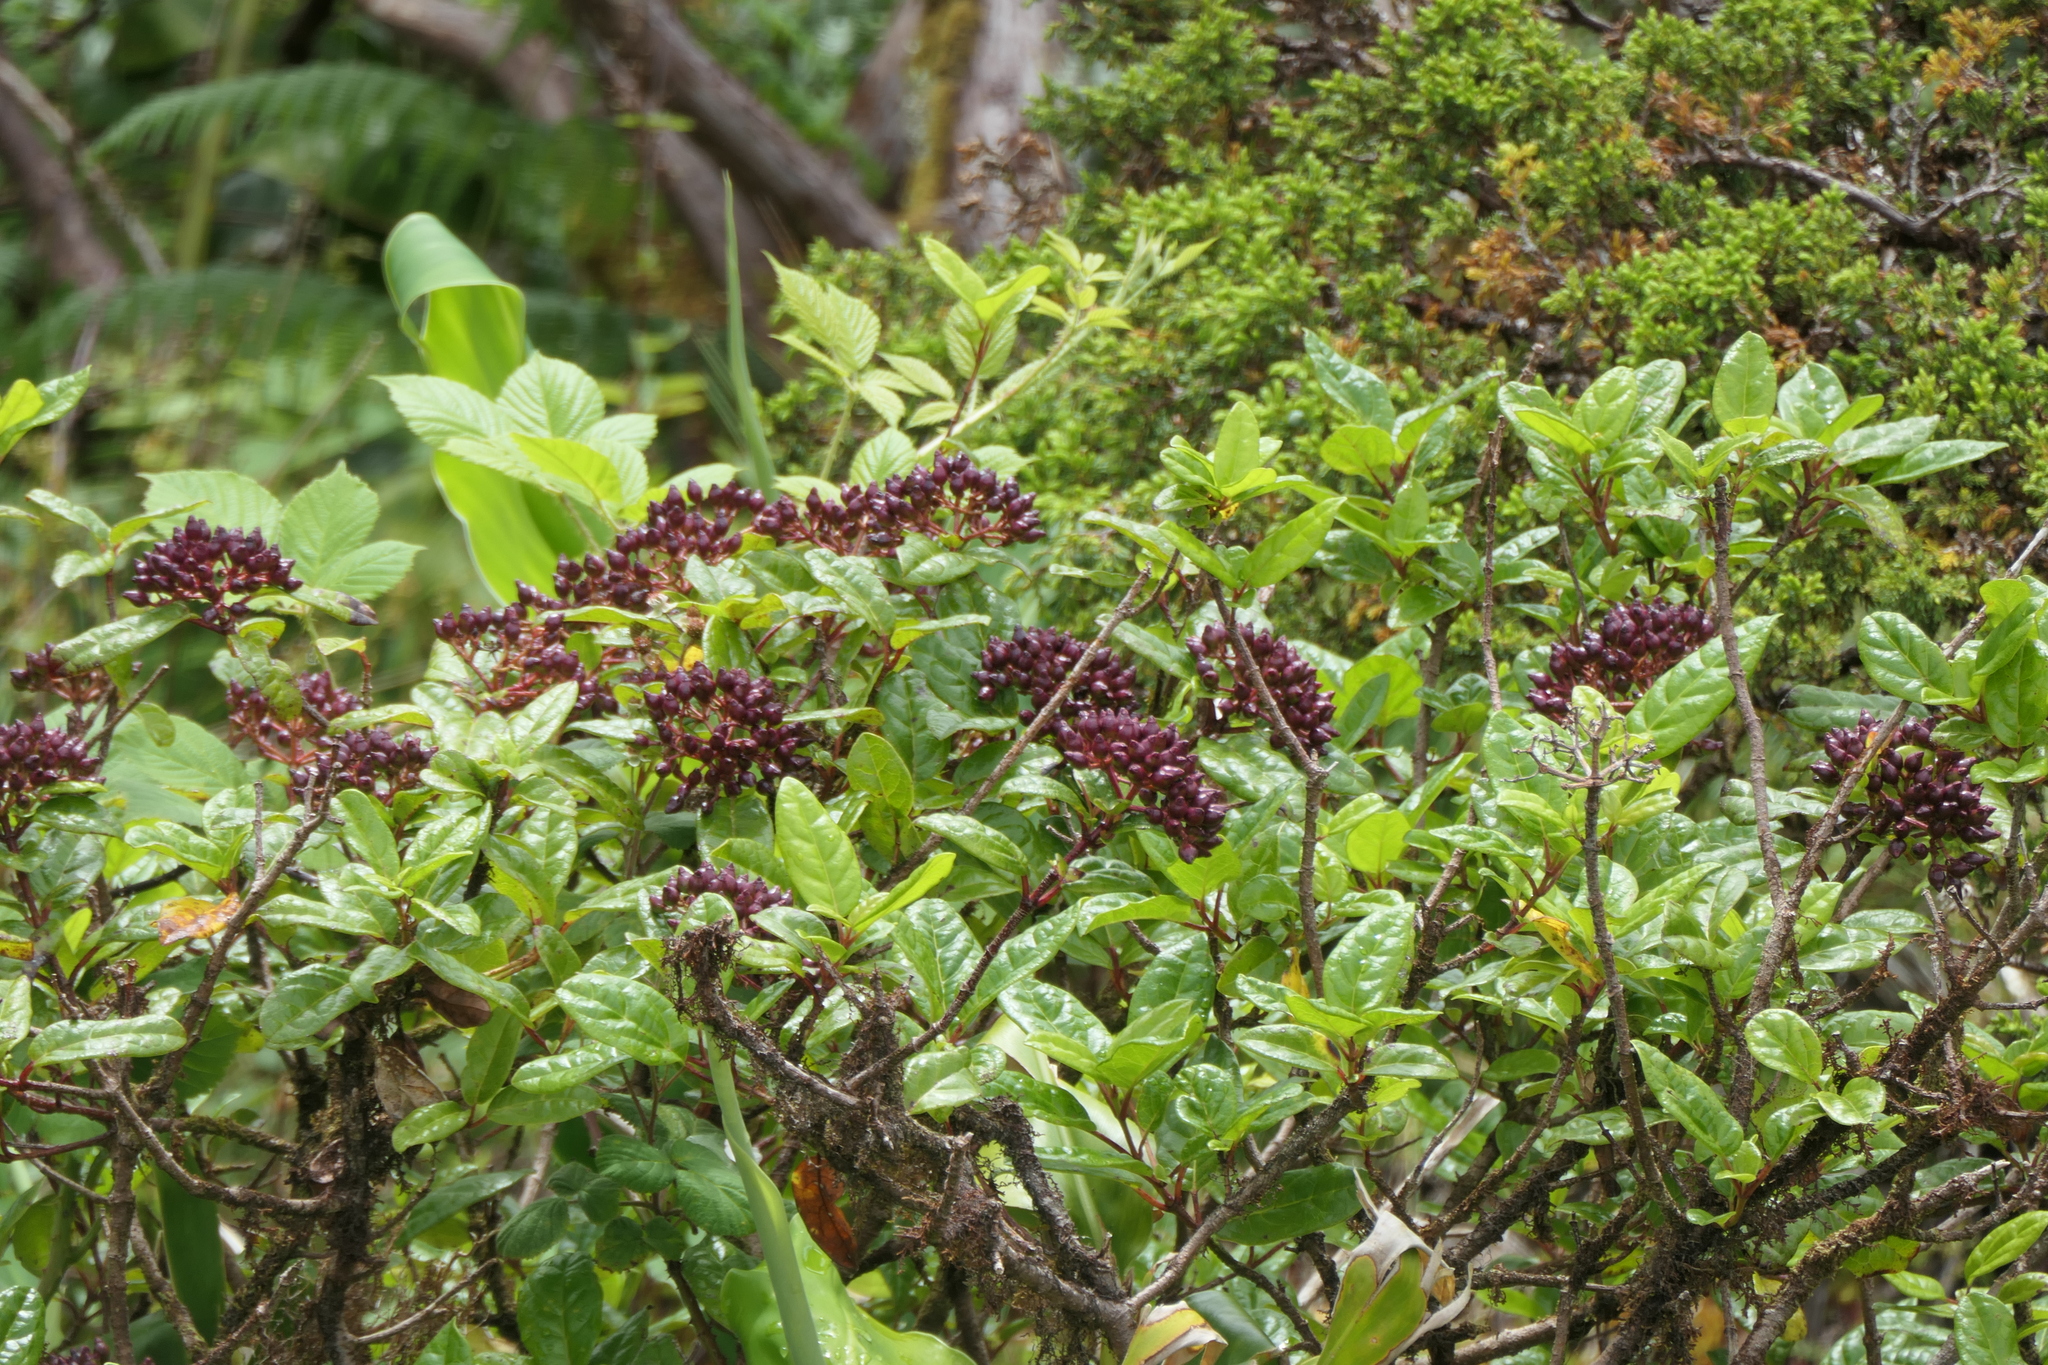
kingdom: Plantae
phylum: Tracheophyta
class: Magnoliopsida
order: Dipsacales
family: Viburnaceae
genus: Viburnum
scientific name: Viburnum treleasei
